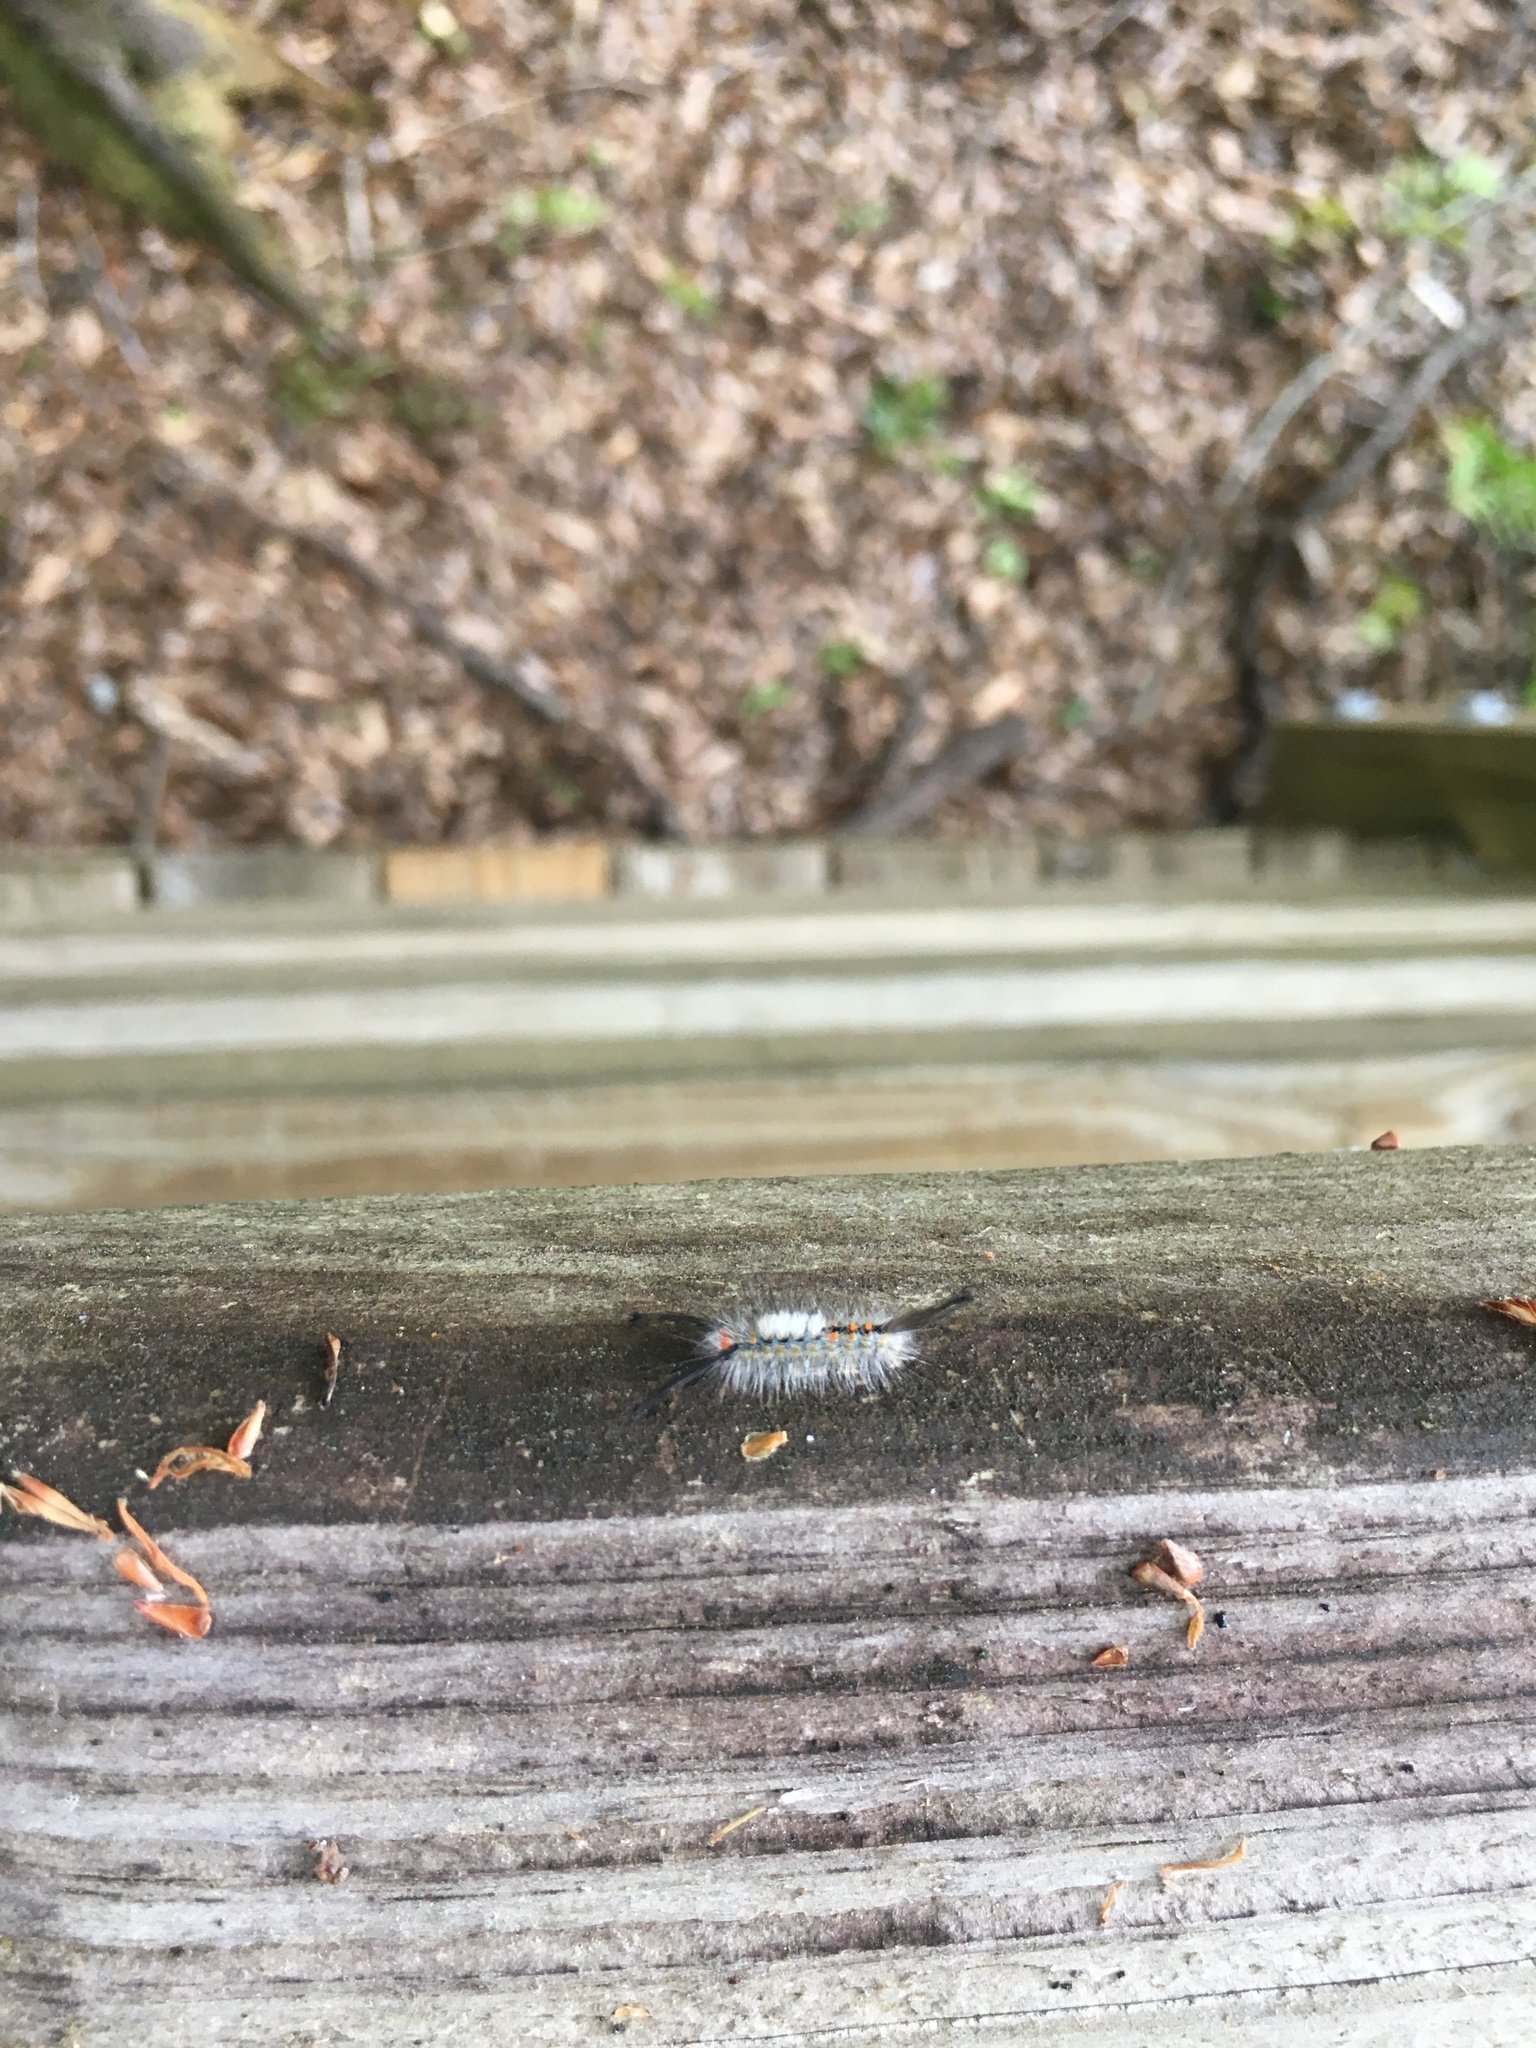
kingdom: Animalia
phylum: Arthropoda
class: Insecta
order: Lepidoptera
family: Erebidae
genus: Orgyia
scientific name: Orgyia detrita
